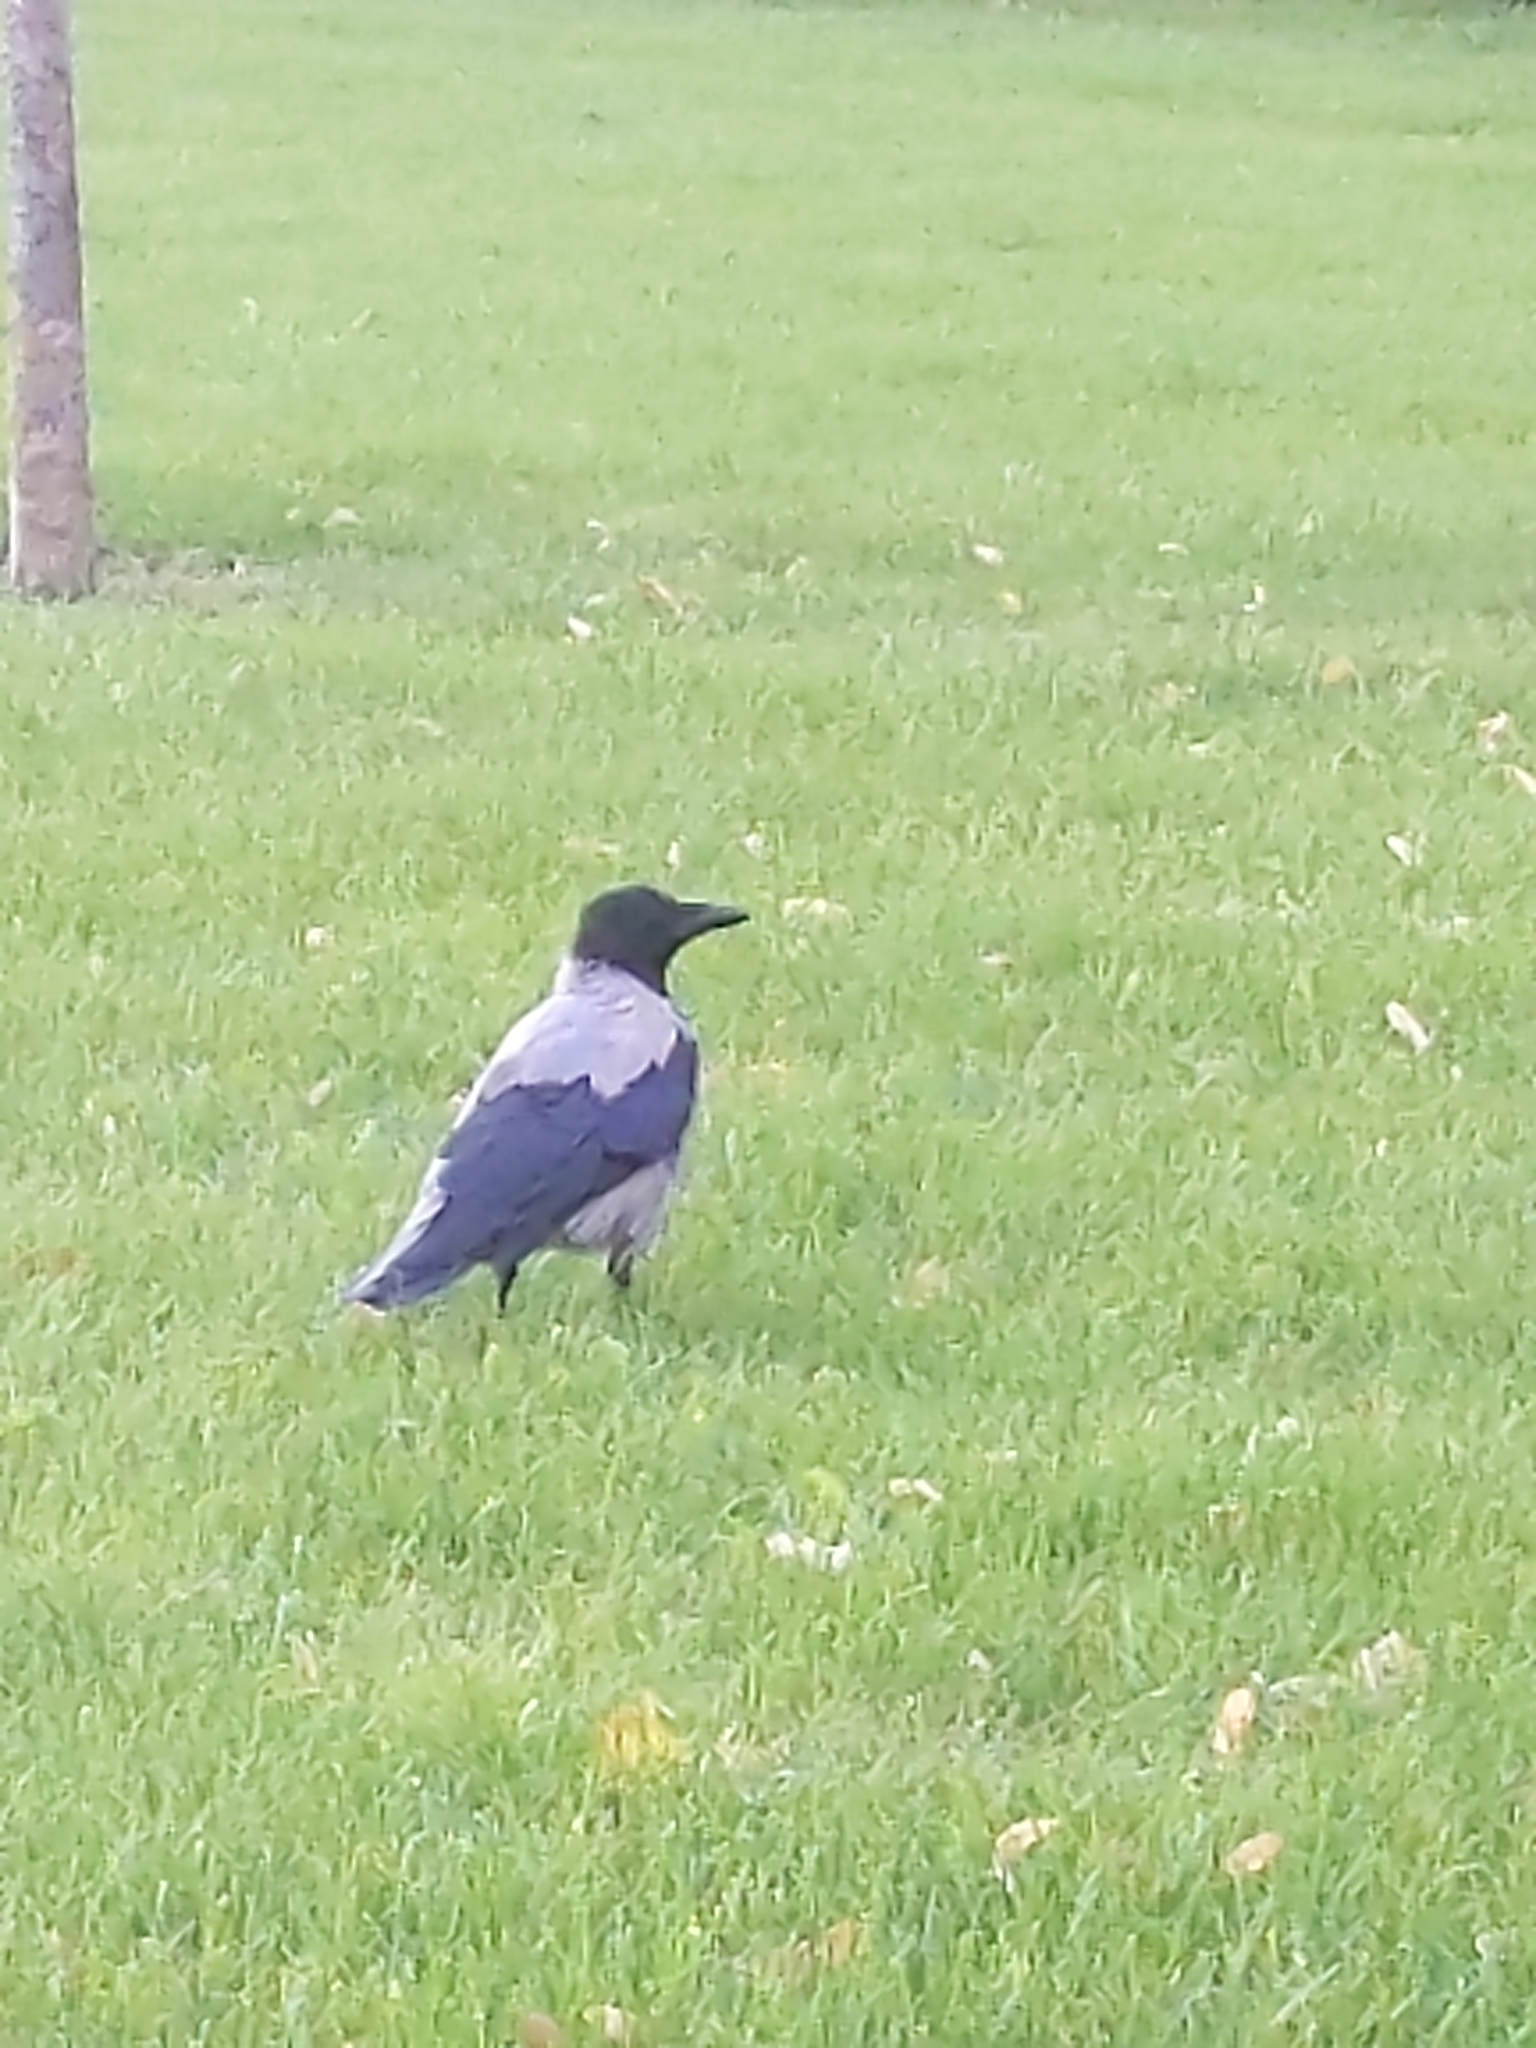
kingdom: Animalia
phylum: Chordata
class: Aves
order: Passeriformes
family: Corvidae
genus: Corvus
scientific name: Corvus cornix
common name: Hooded crow
